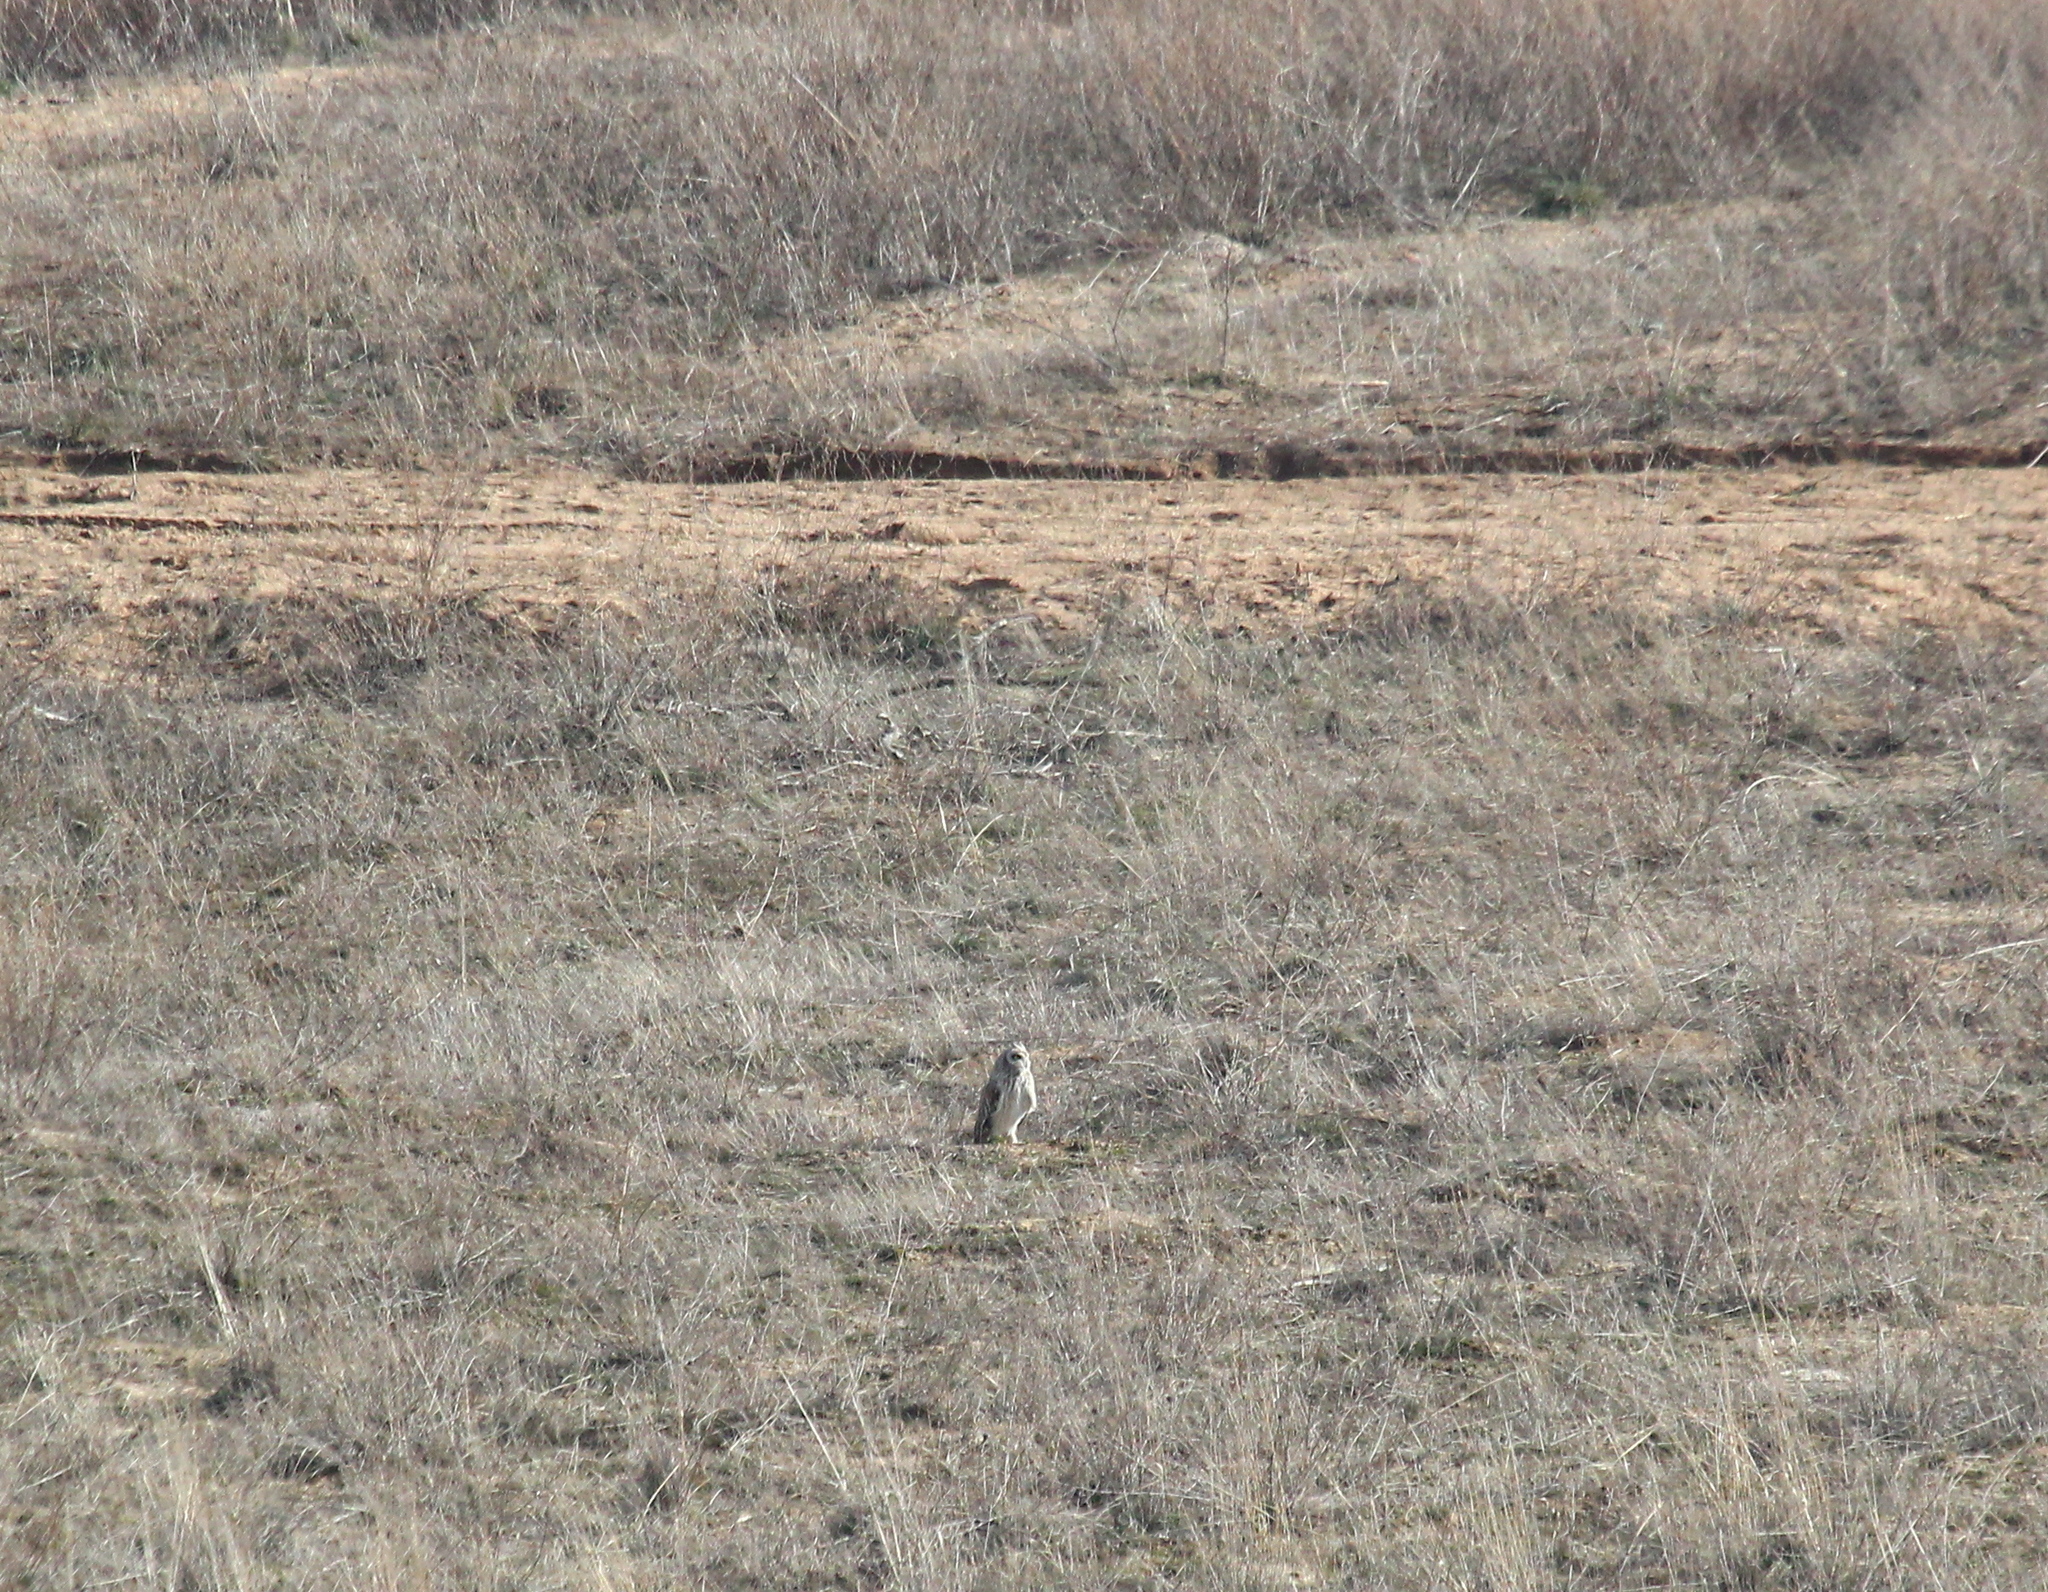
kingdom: Animalia
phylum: Chordata
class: Aves
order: Strigiformes
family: Strigidae
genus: Asio
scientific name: Asio flammeus
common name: Short-eared owl
